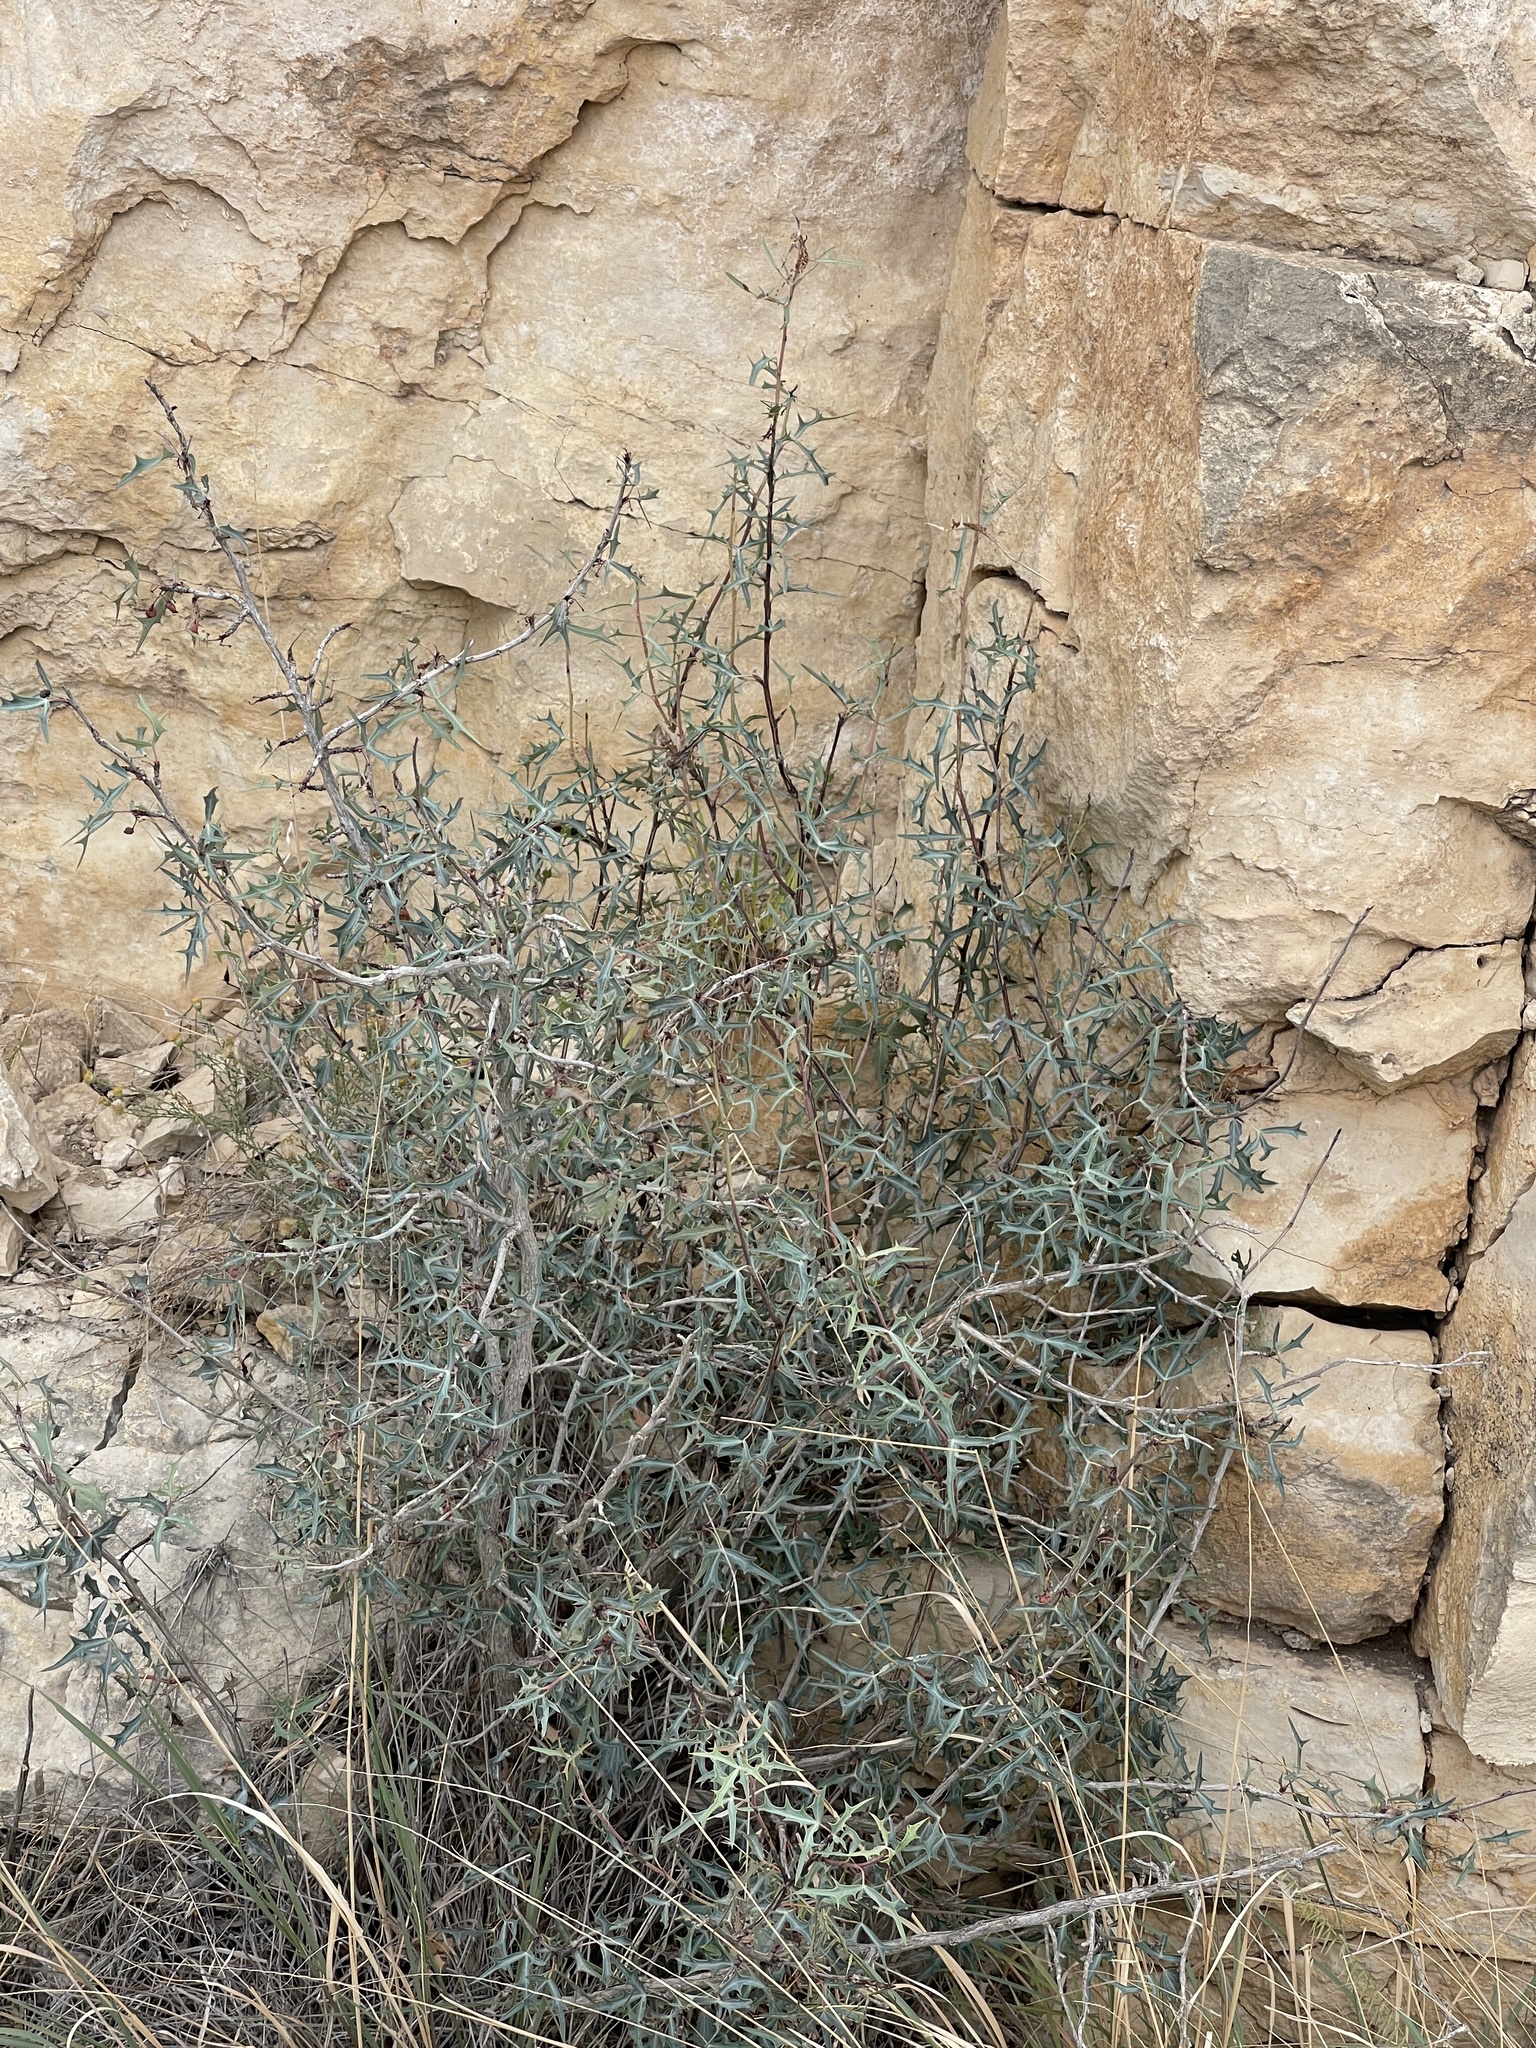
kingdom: Plantae
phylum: Tracheophyta
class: Magnoliopsida
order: Ranunculales
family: Berberidaceae
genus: Alloberberis
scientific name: Alloberberis trifoliolata
